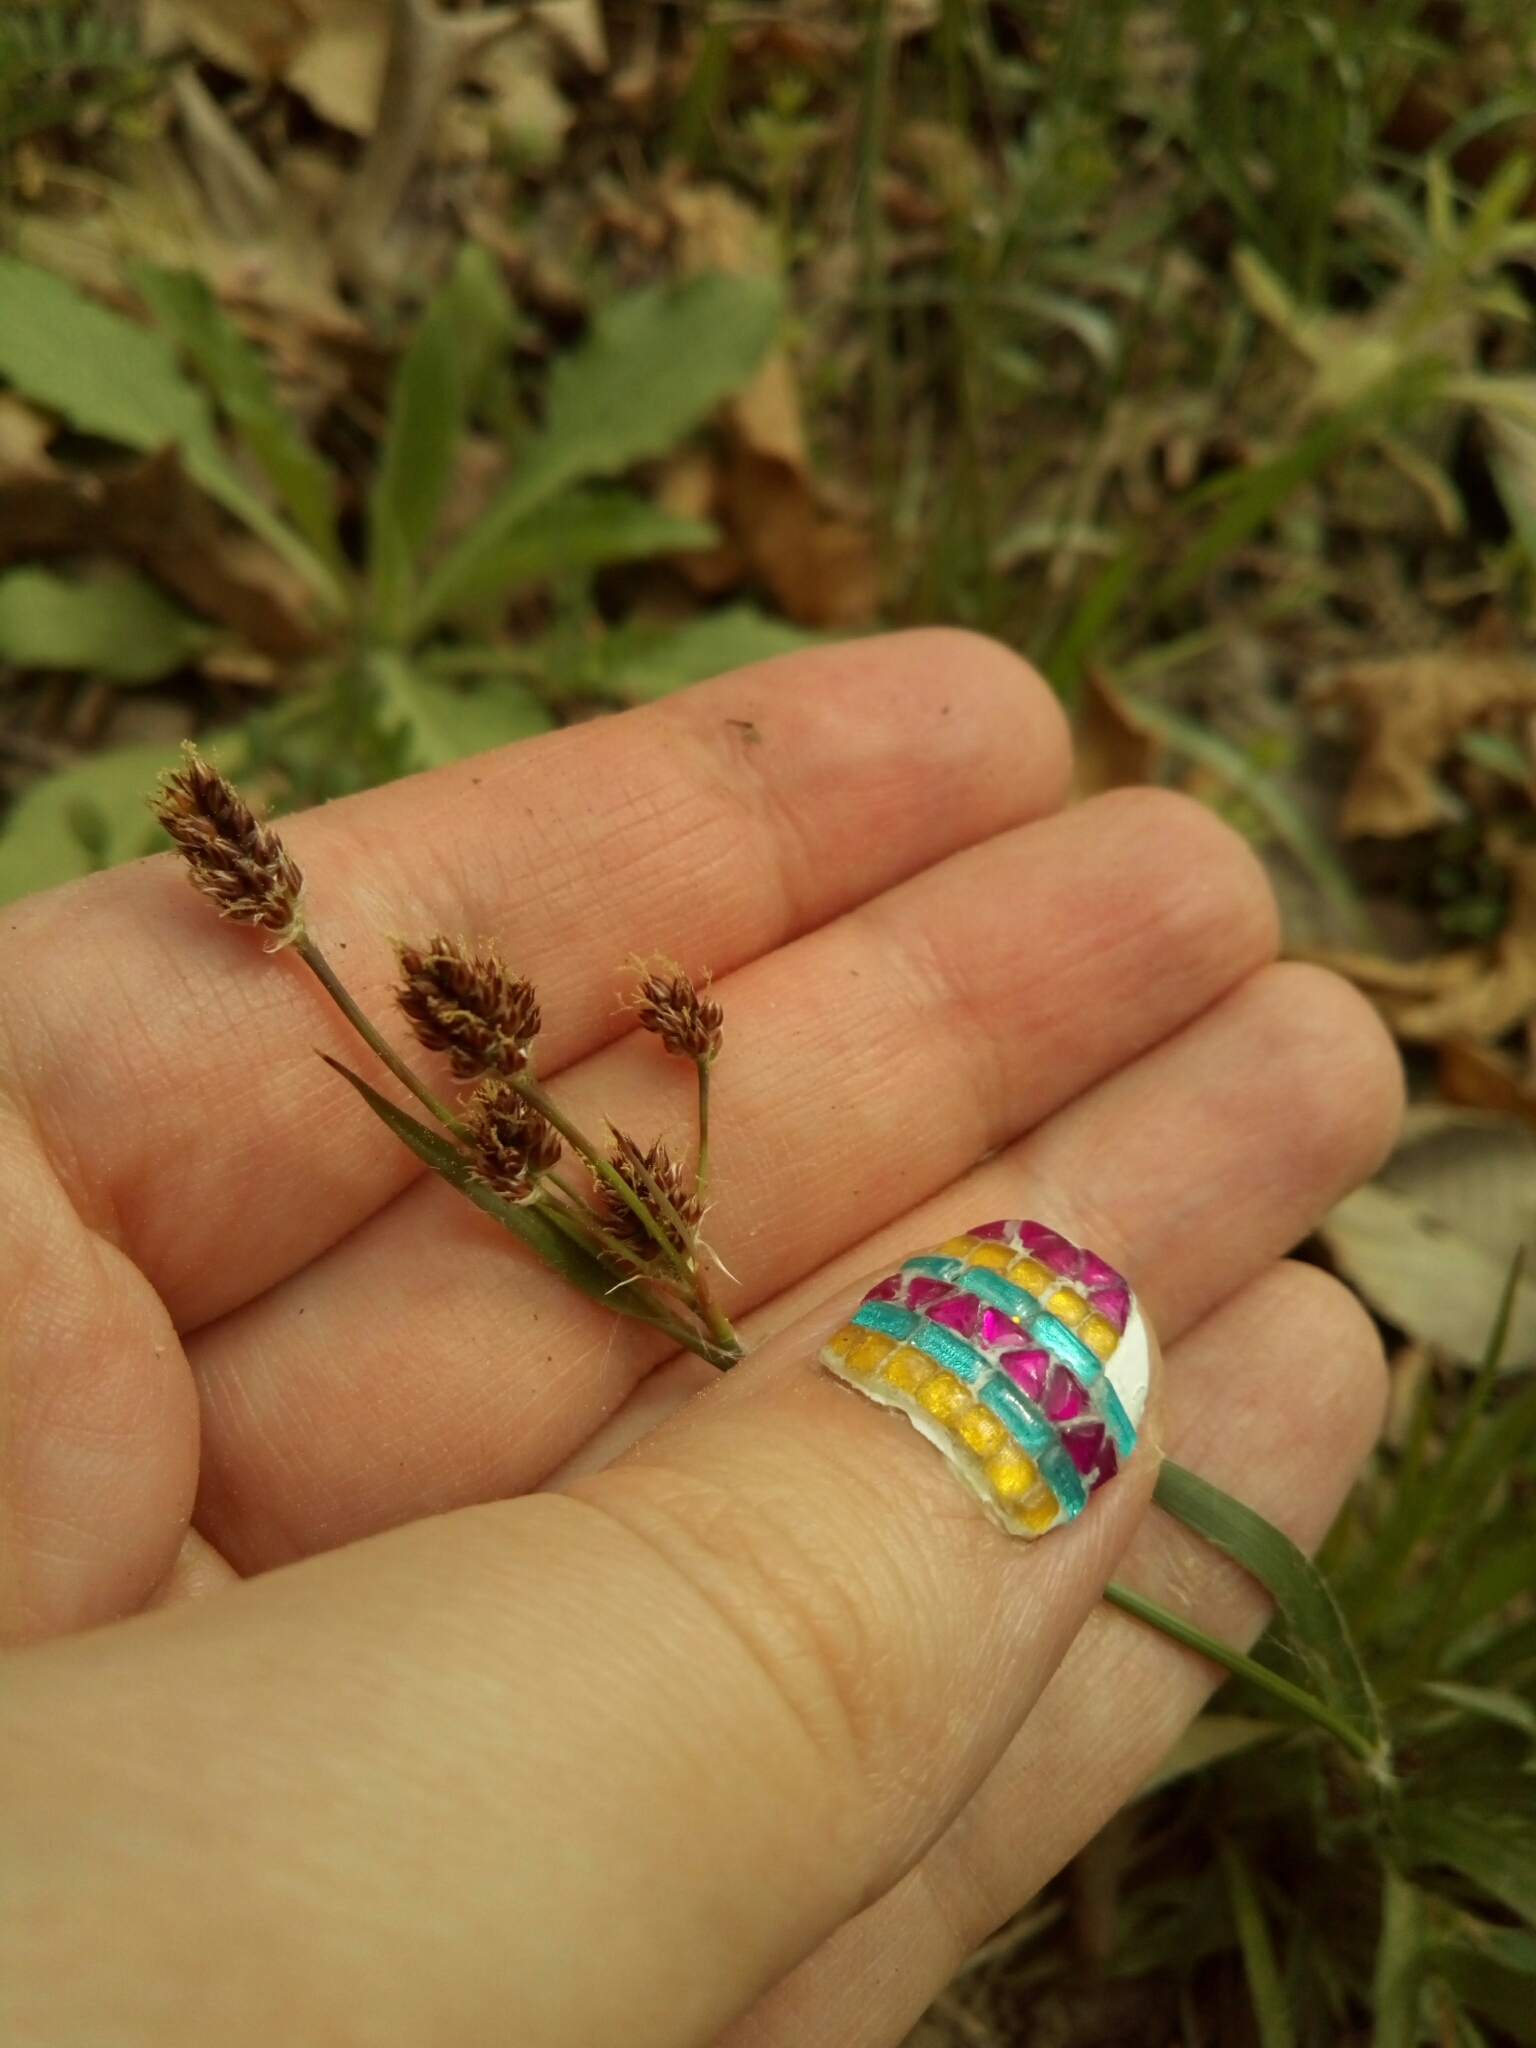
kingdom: Plantae
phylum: Tracheophyta
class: Liliopsida
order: Poales
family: Juncaceae
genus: Luzula
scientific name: Luzula multiflora
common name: Heath wood-rush
